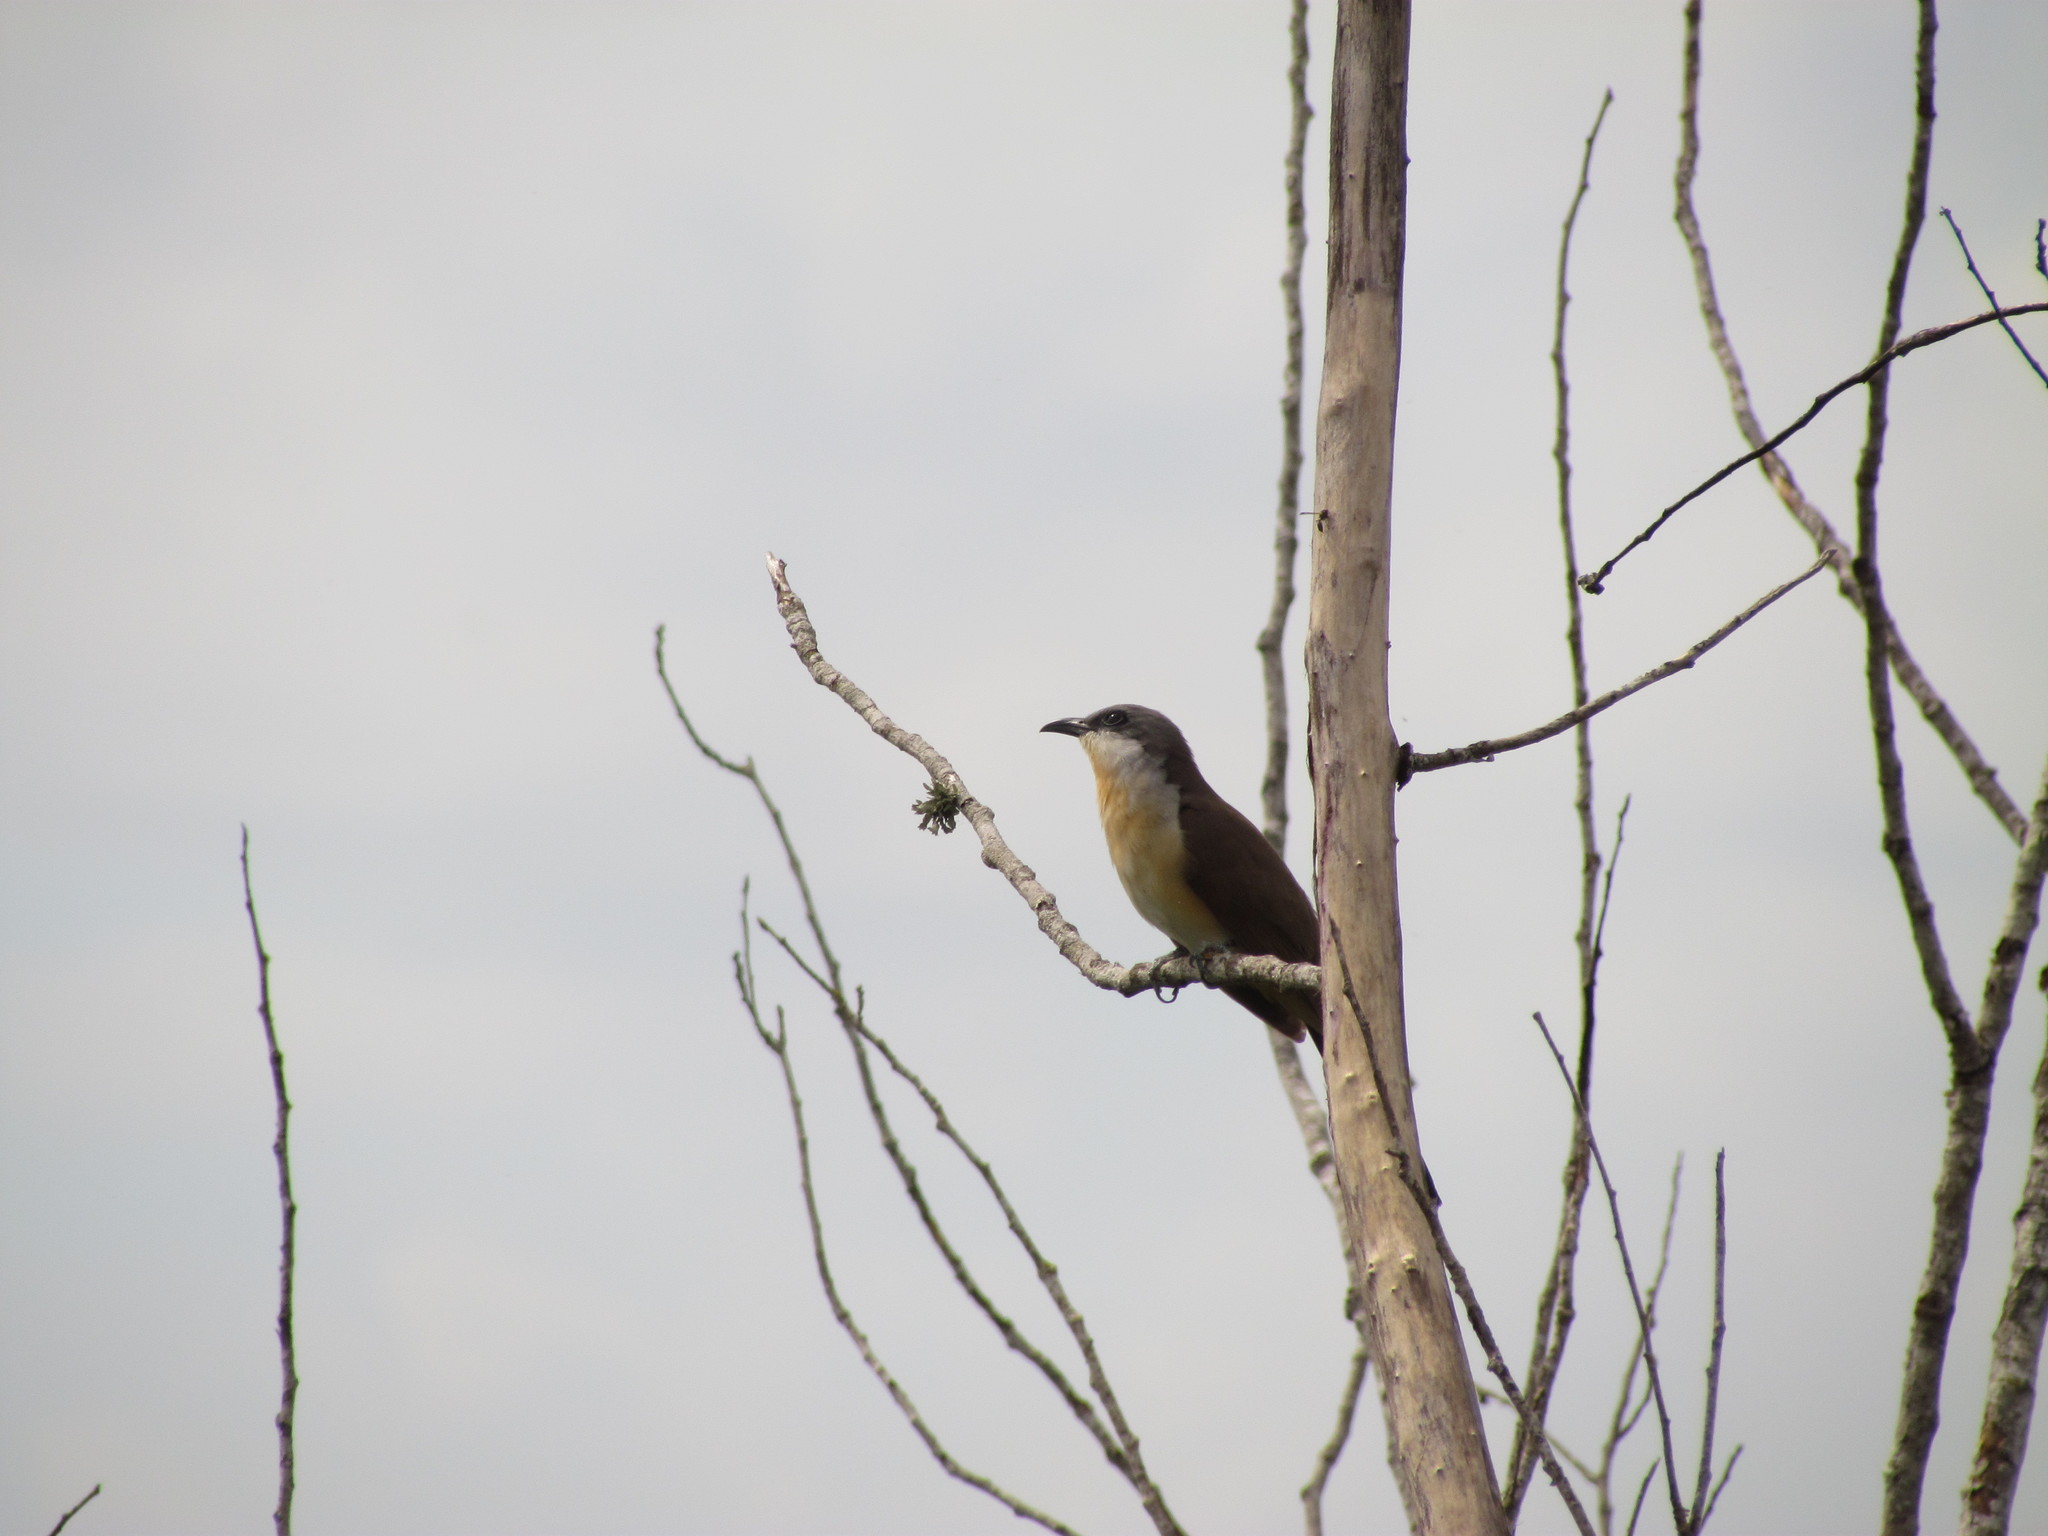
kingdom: Animalia
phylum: Chordata
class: Aves
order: Cuculiformes
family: Cuculidae
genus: Coccyzus
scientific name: Coccyzus melacoryphus
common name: Dark-billed cuckoo
